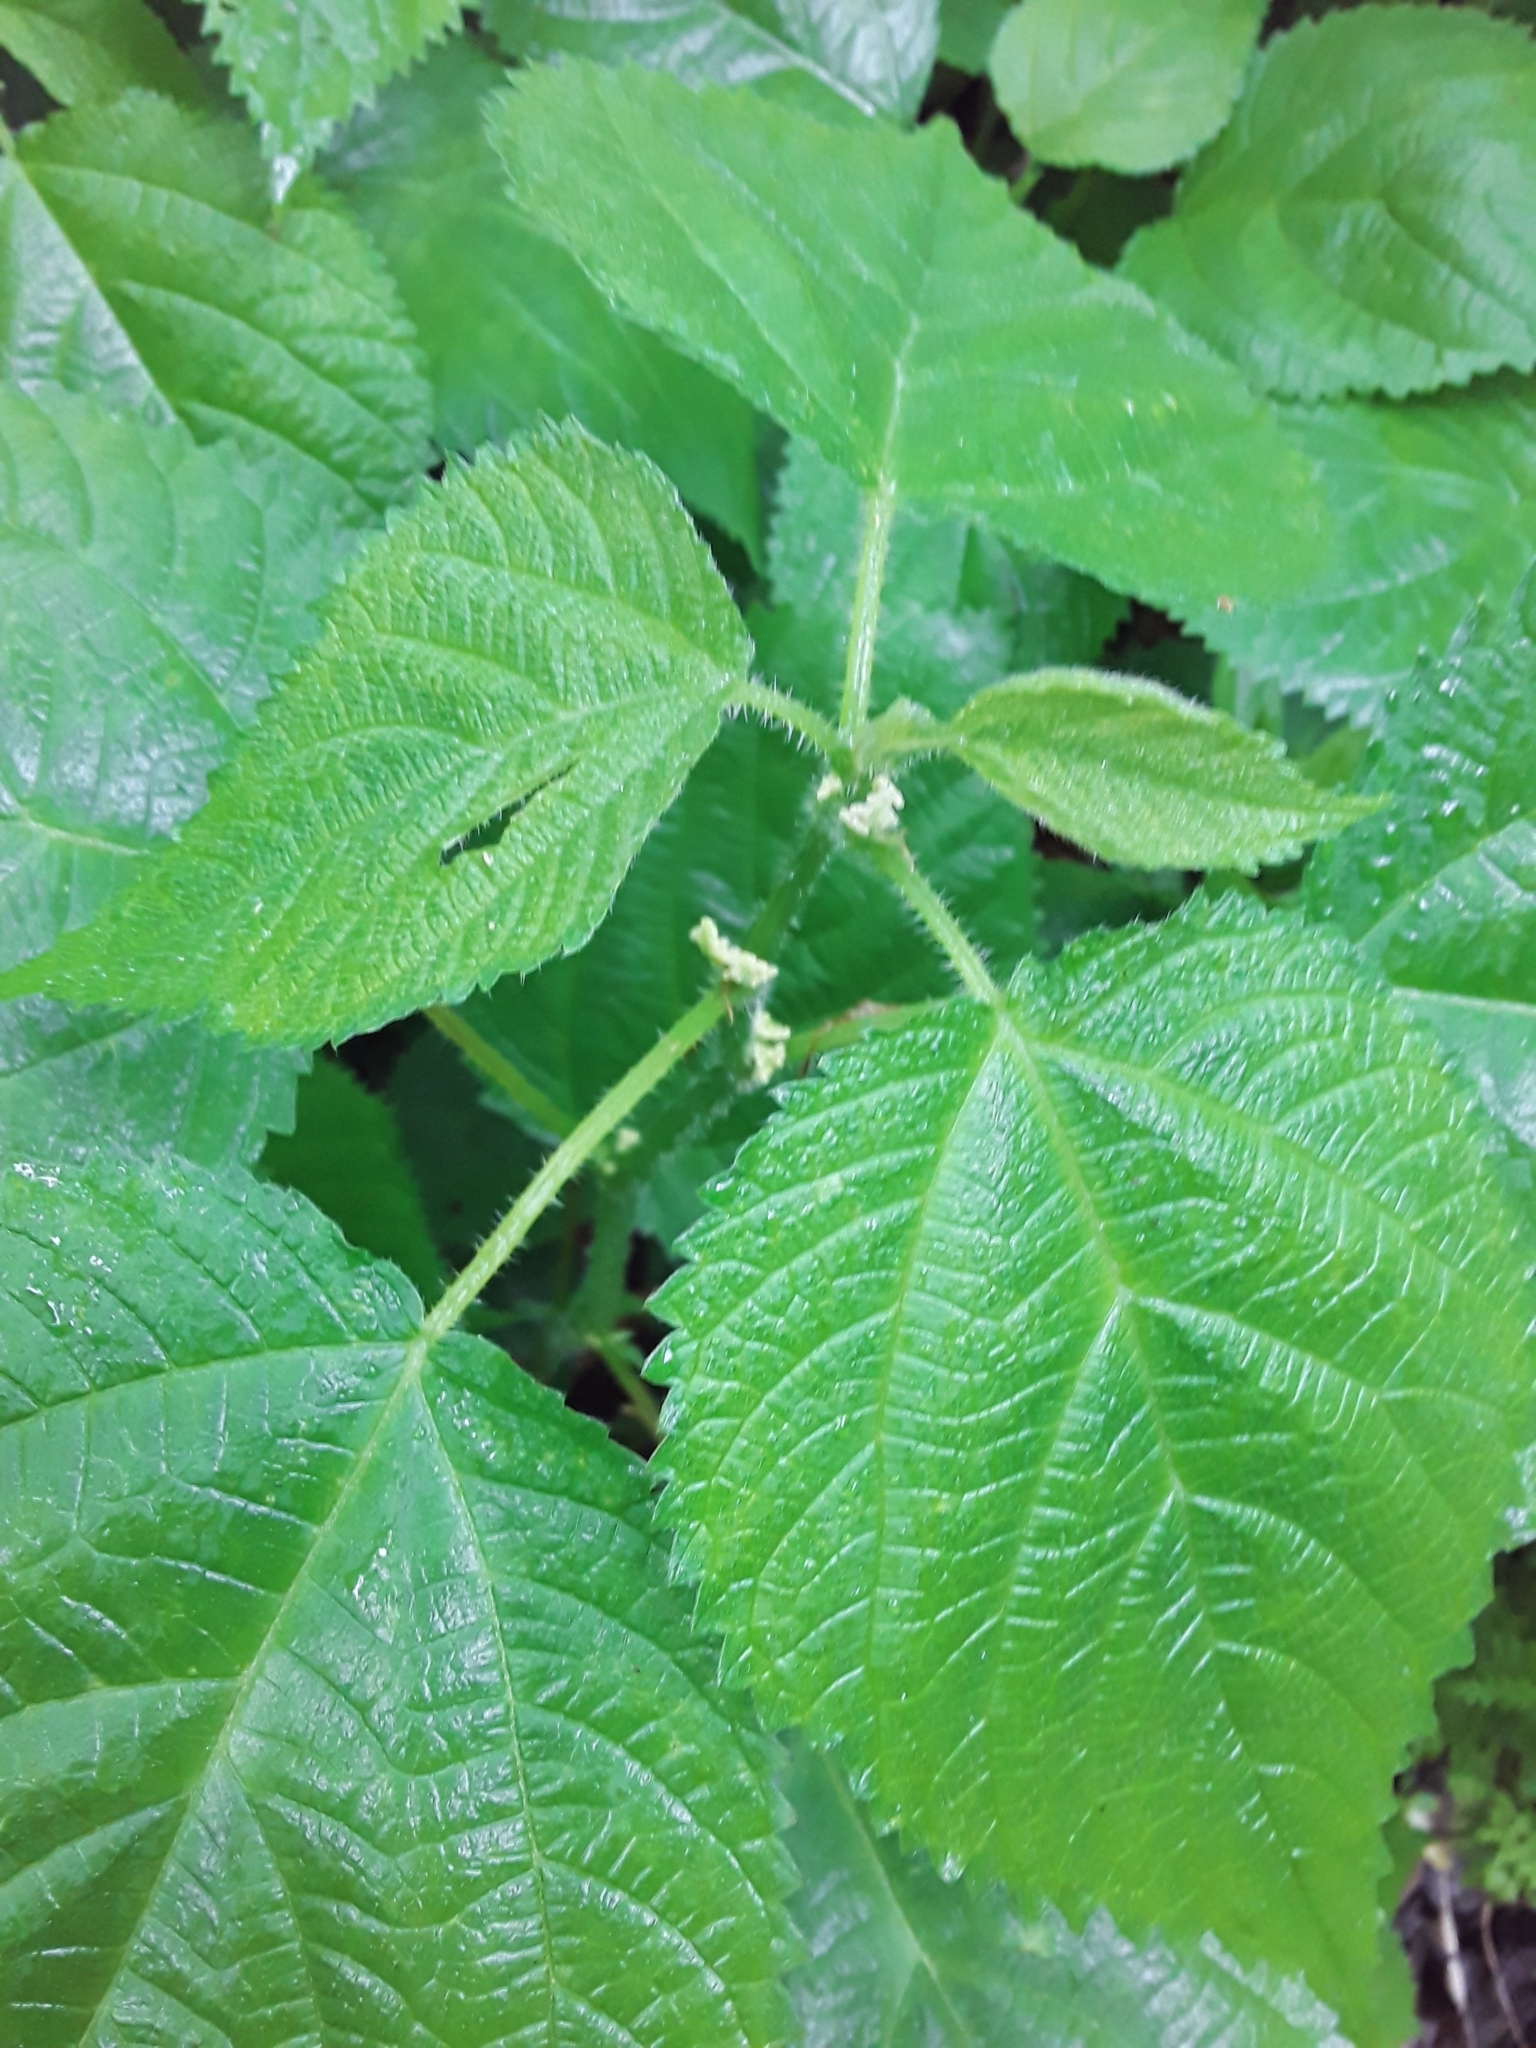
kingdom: Plantae
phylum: Tracheophyta
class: Magnoliopsida
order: Rosales
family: Urticaceae
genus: Laportea
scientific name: Laportea canadensis
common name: Canada nettle
